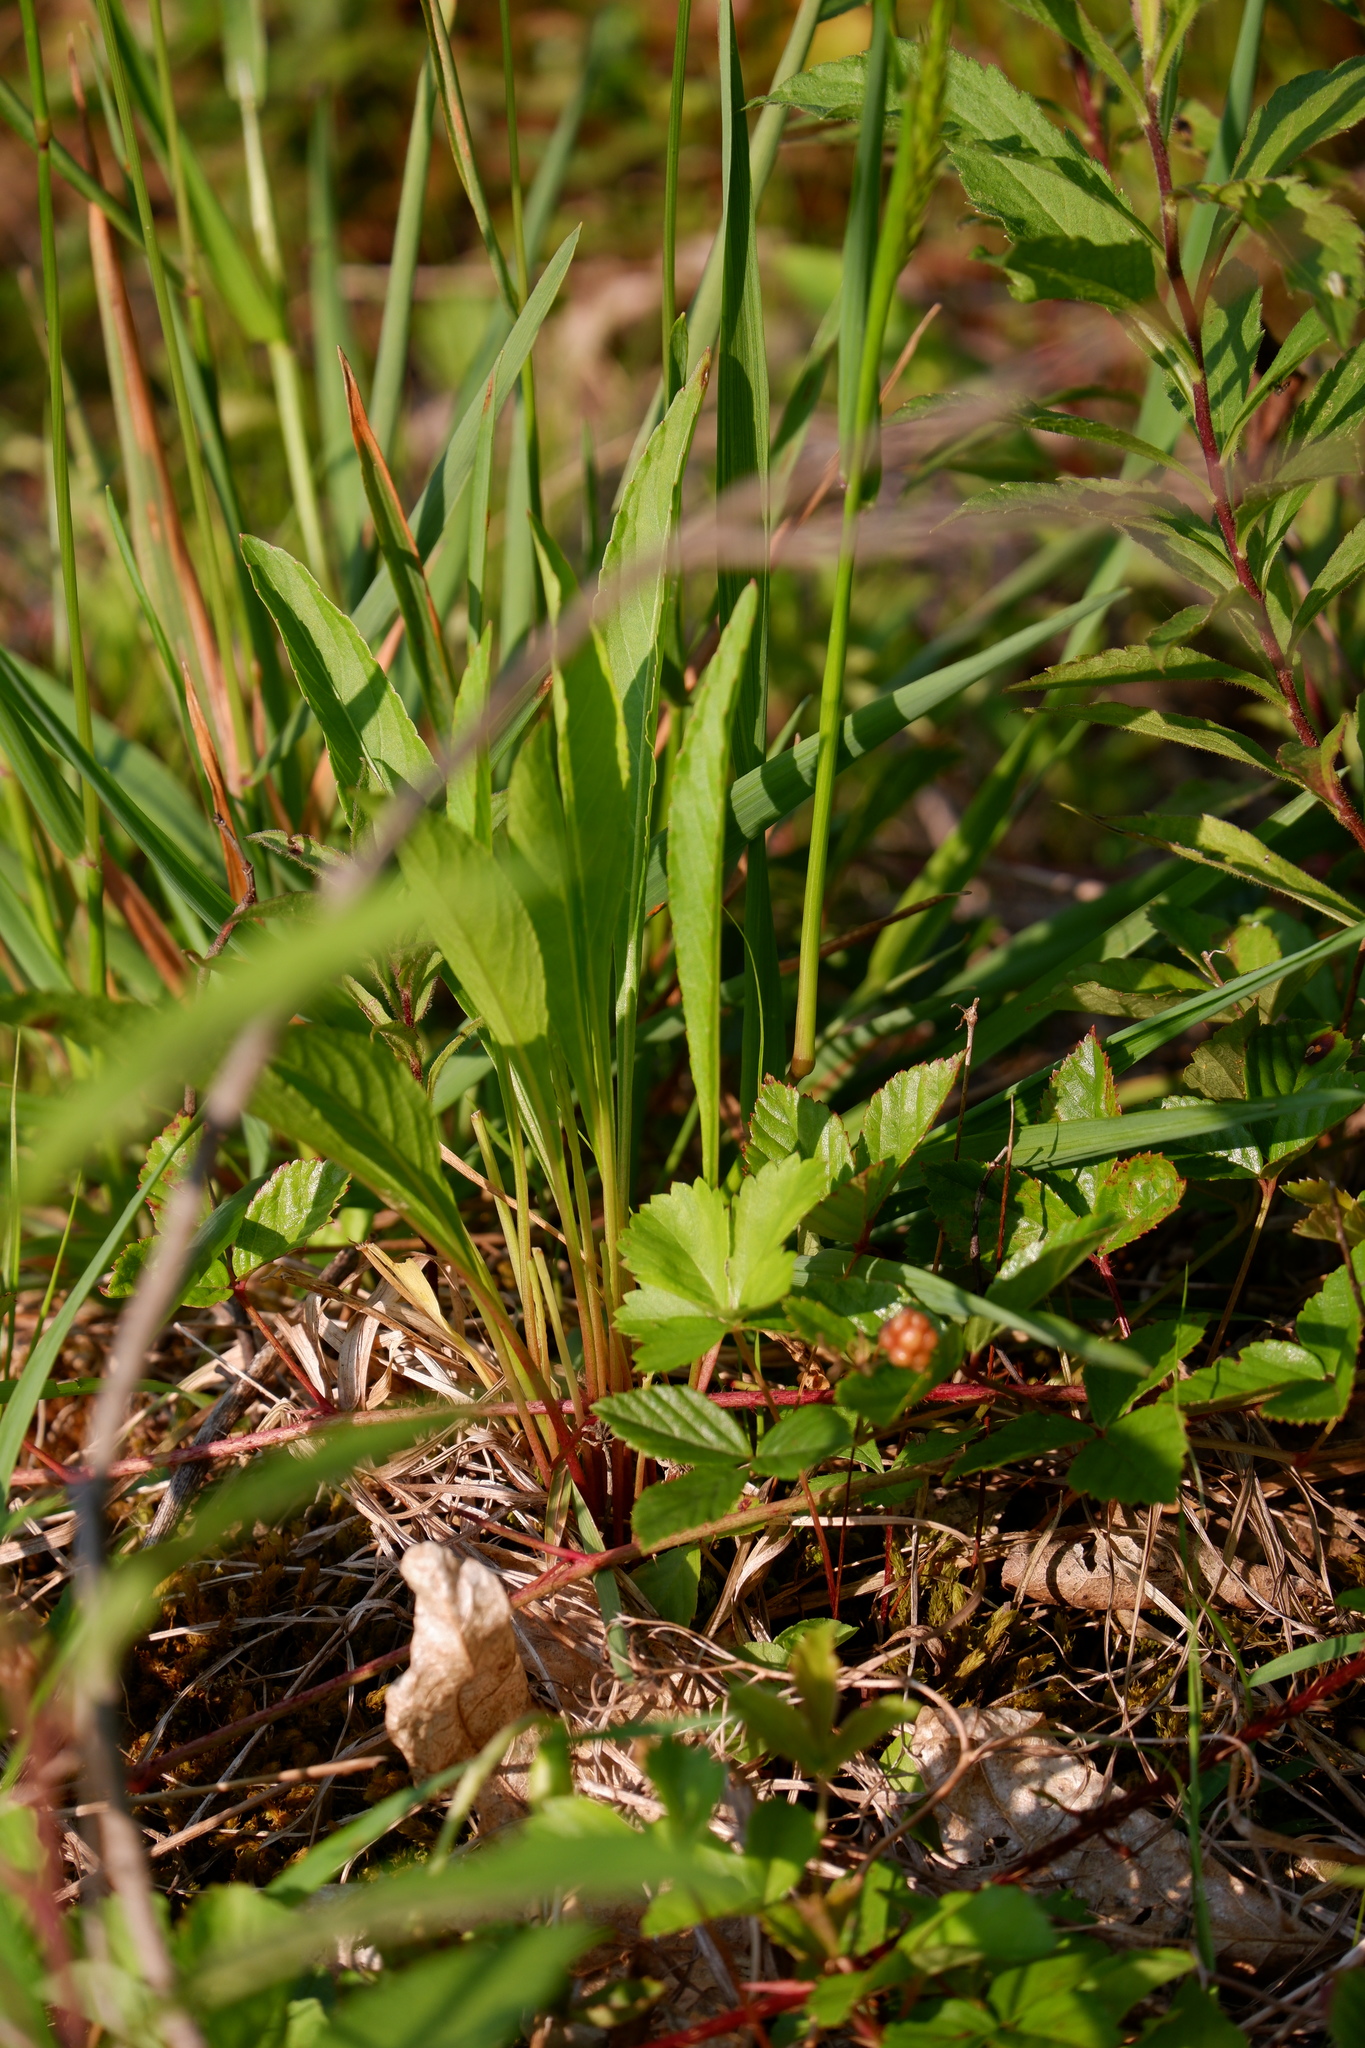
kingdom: Plantae
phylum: Tracheophyta
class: Magnoliopsida
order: Malpighiales
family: Violaceae
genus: Viola
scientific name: Viola lanceolata
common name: Bog white violet
